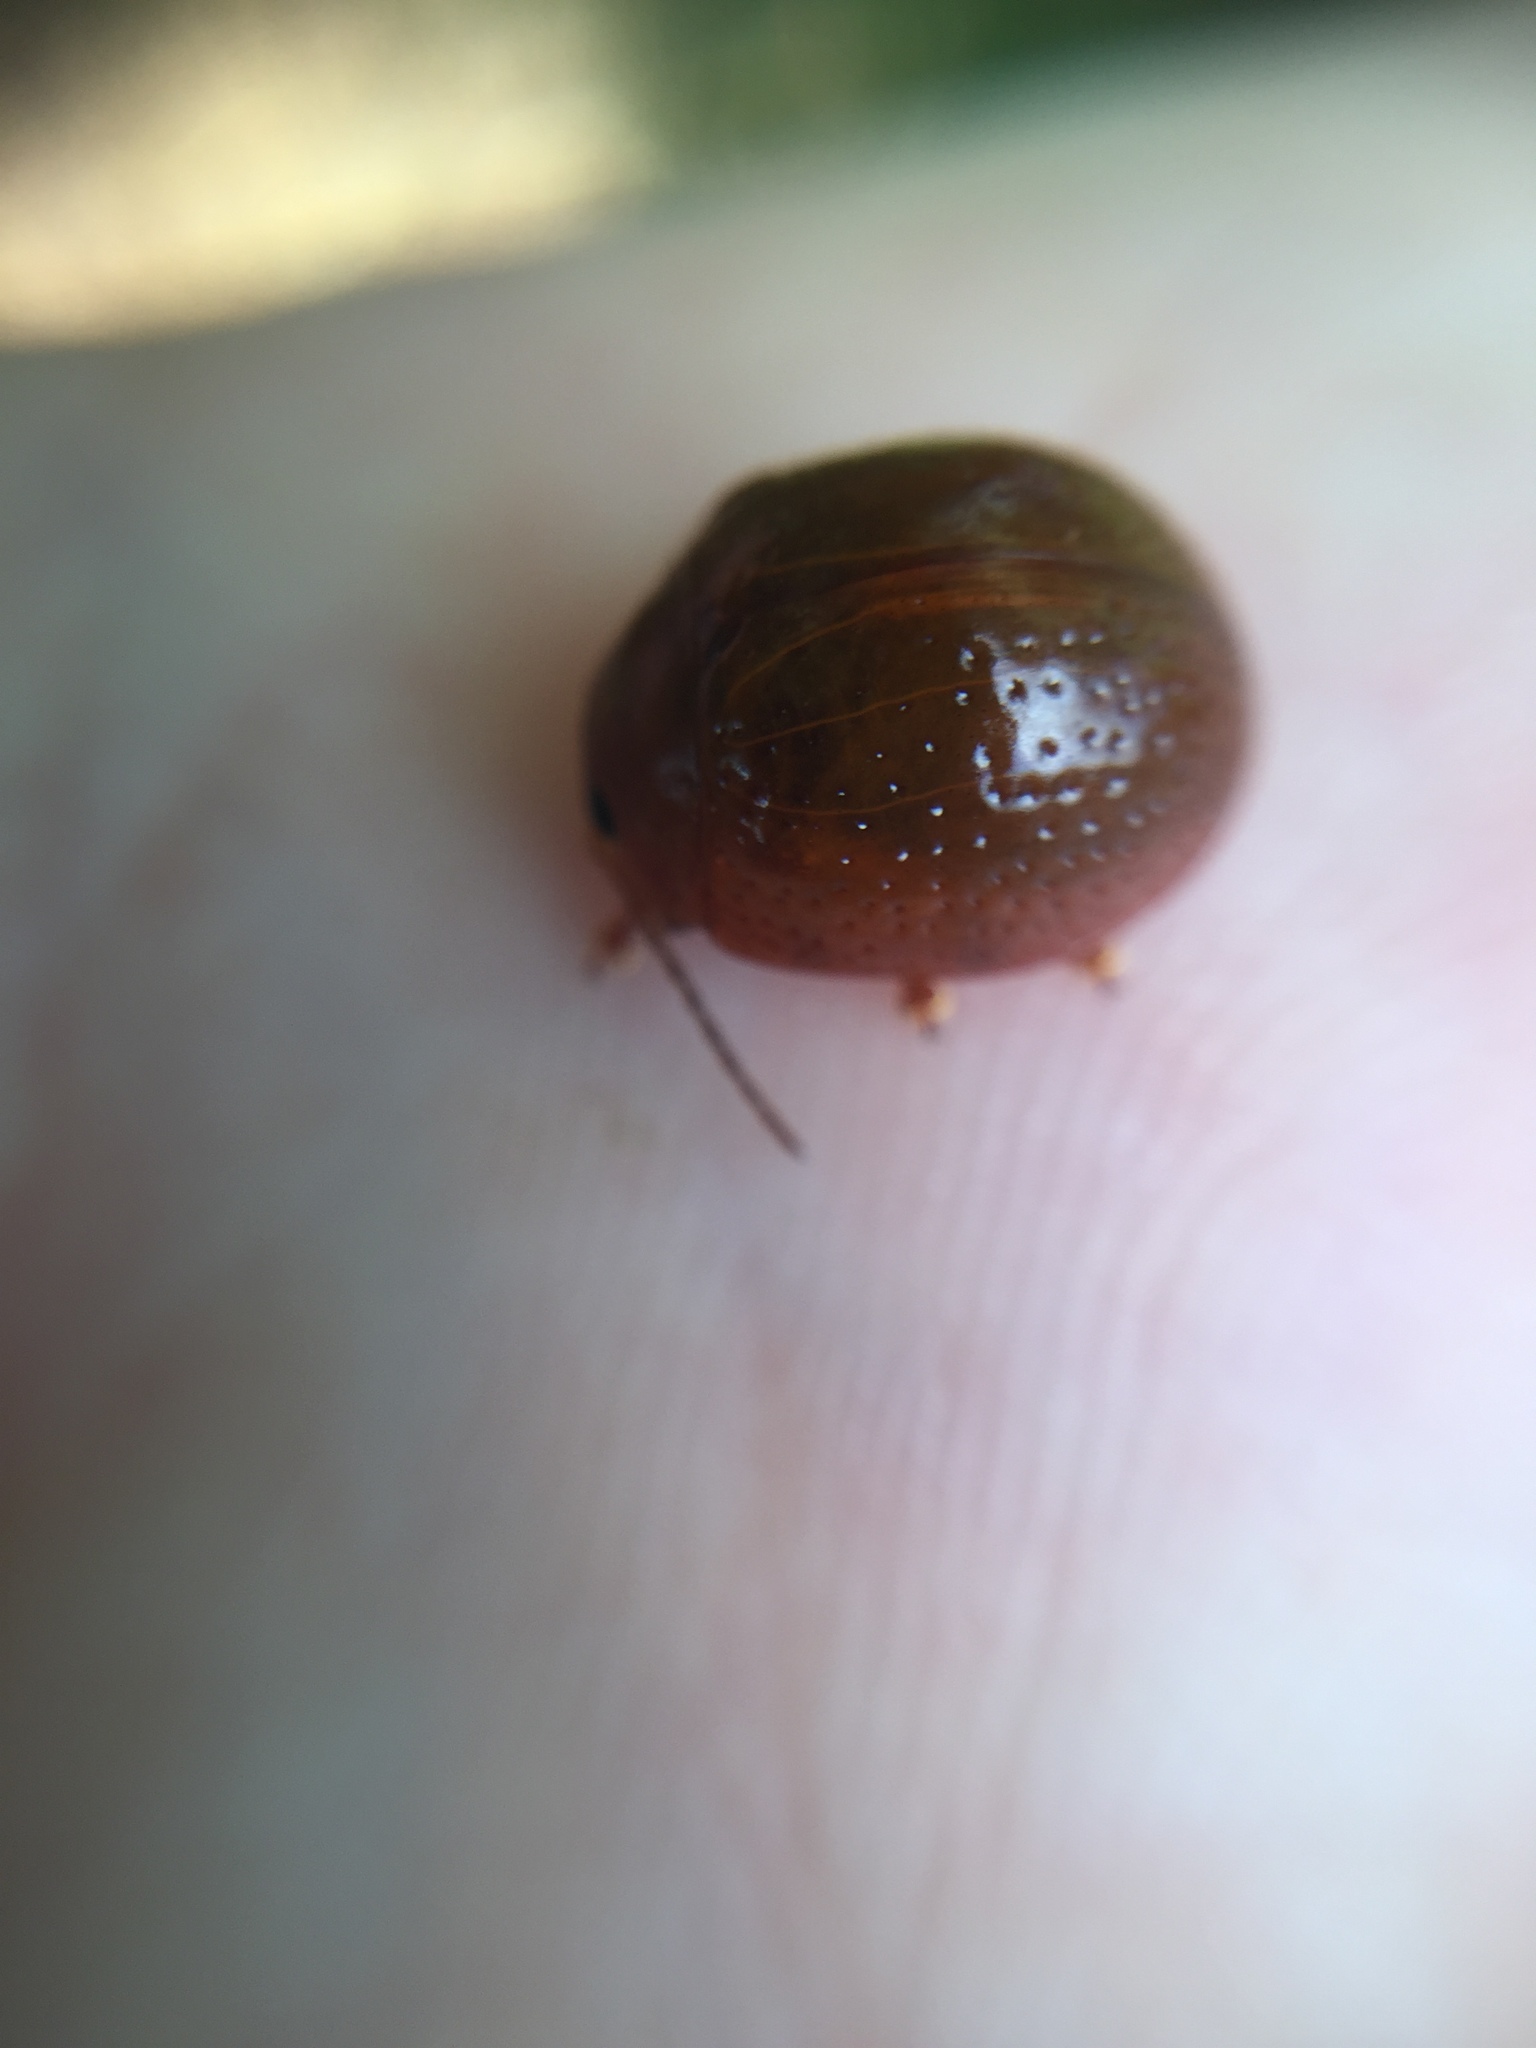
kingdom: Animalia
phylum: Arthropoda
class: Insecta
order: Coleoptera
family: Chrysomelidae
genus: Dicranosterna
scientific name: Dicranosterna
